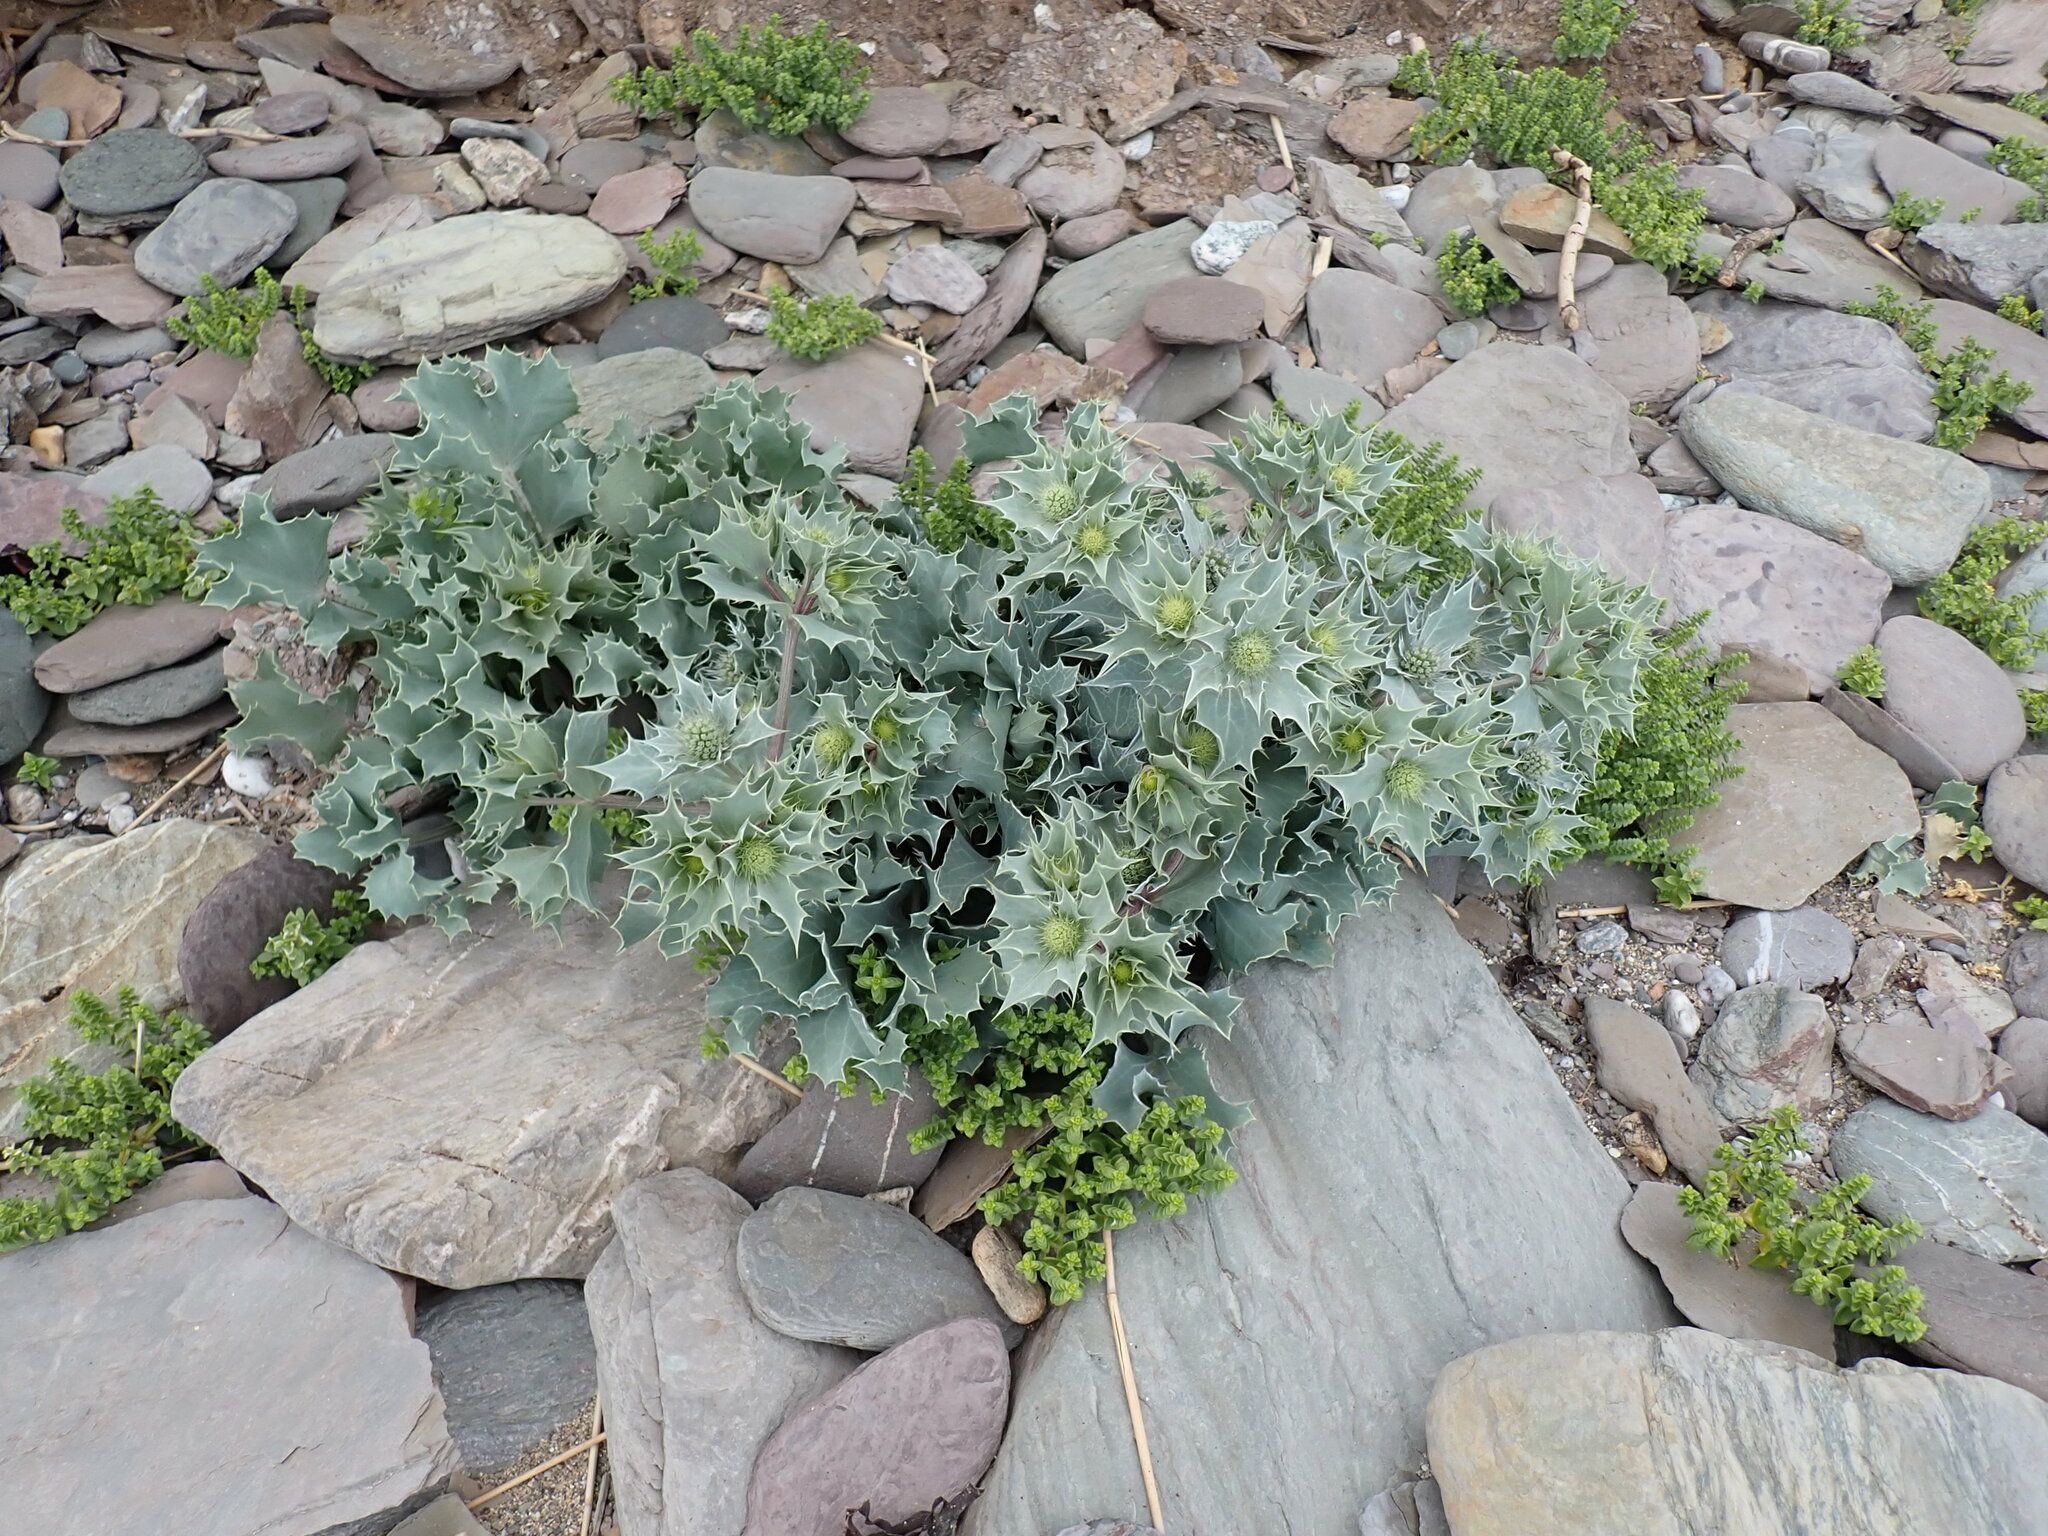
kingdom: Plantae
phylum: Tracheophyta
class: Magnoliopsida
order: Apiales
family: Apiaceae
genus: Eryngium
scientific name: Eryngium maritimum
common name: Sea-holly
